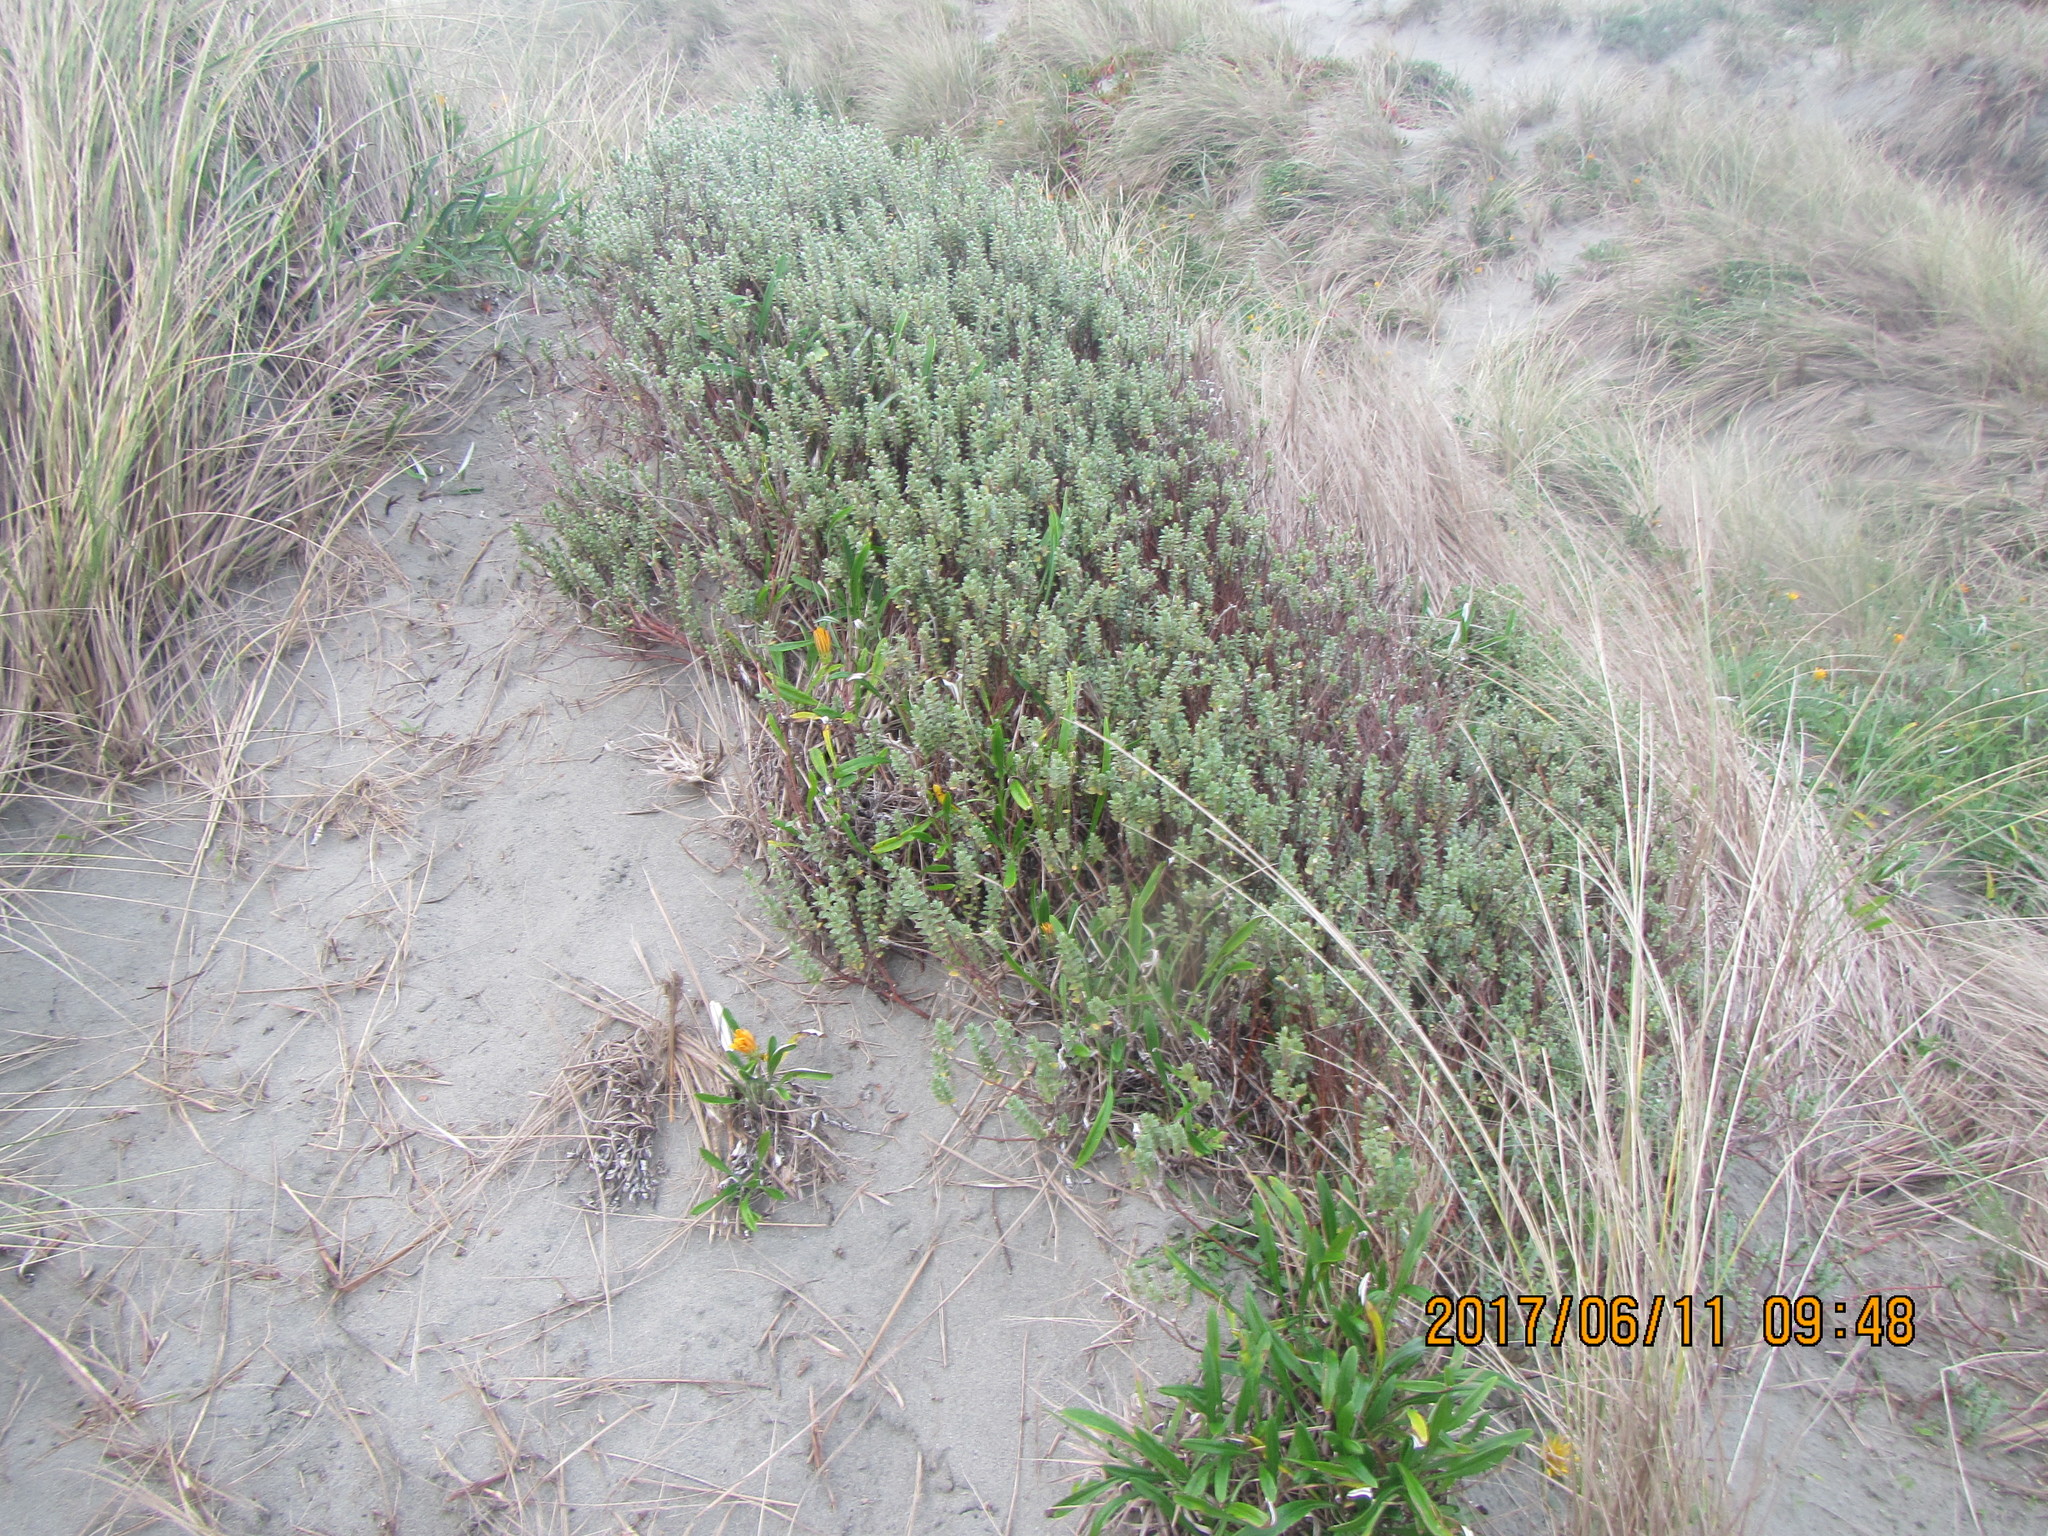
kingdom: Plantae
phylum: Tracheophyta
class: Magnoliopsida
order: Malvales
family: Thymelaeaceae
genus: Pimelea
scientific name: Pimelea villosa
